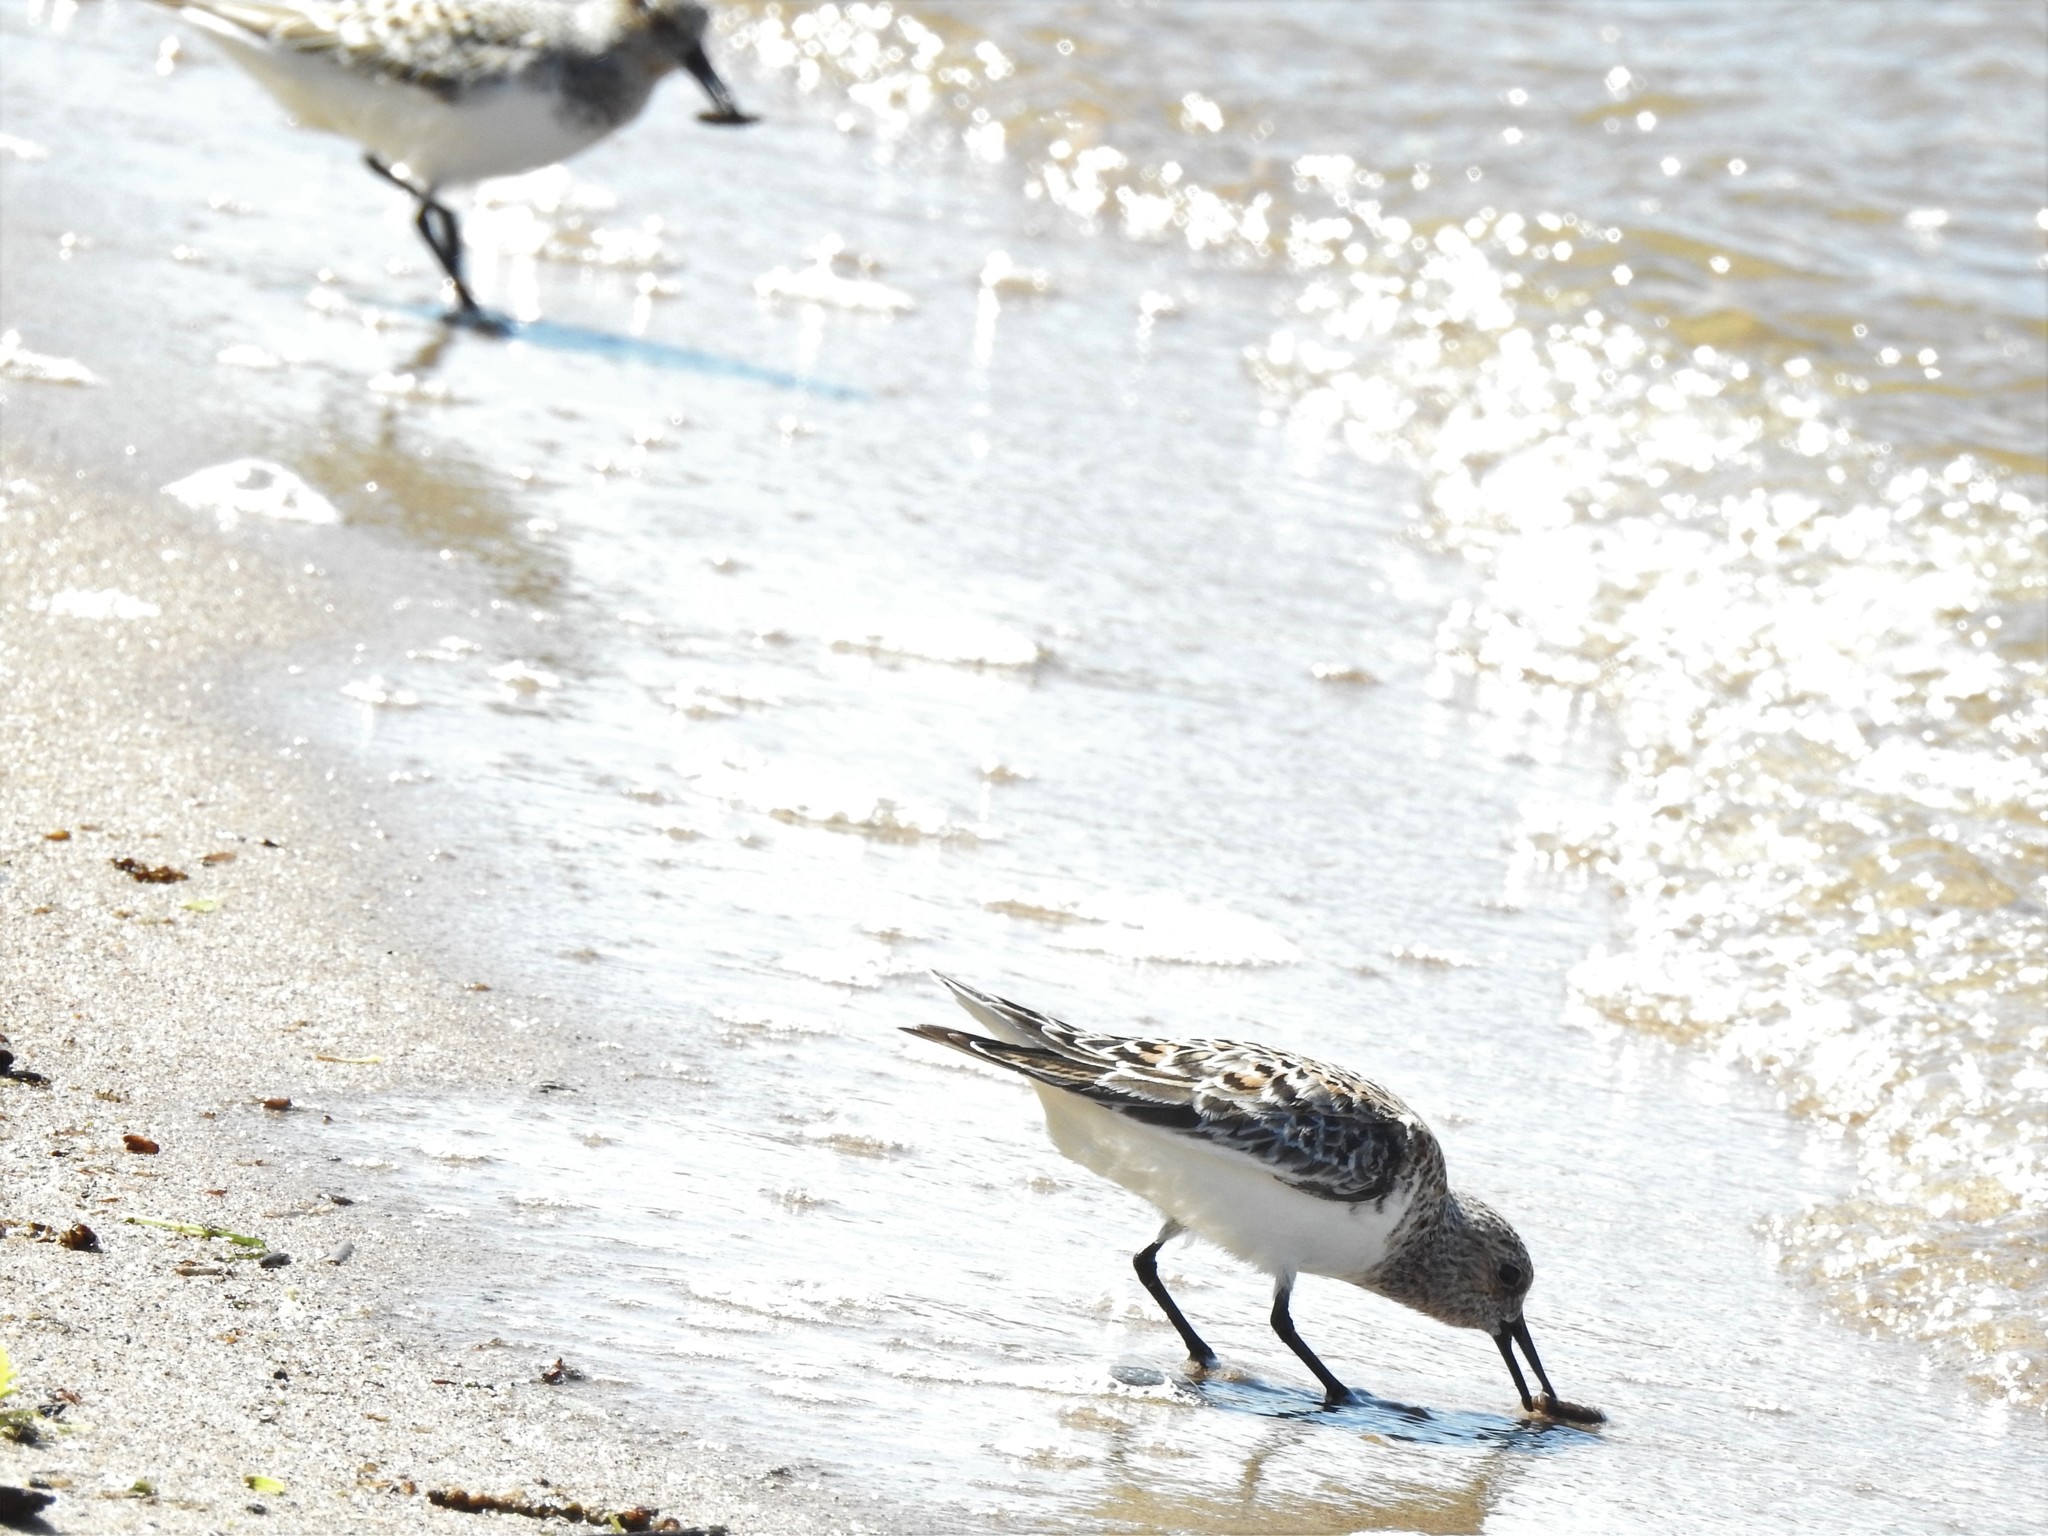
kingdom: Animalia
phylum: Chordata
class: Aves
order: Charadriiformes
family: Scolopacidae
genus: Calidris
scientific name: Calidris alba
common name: Sanderling
